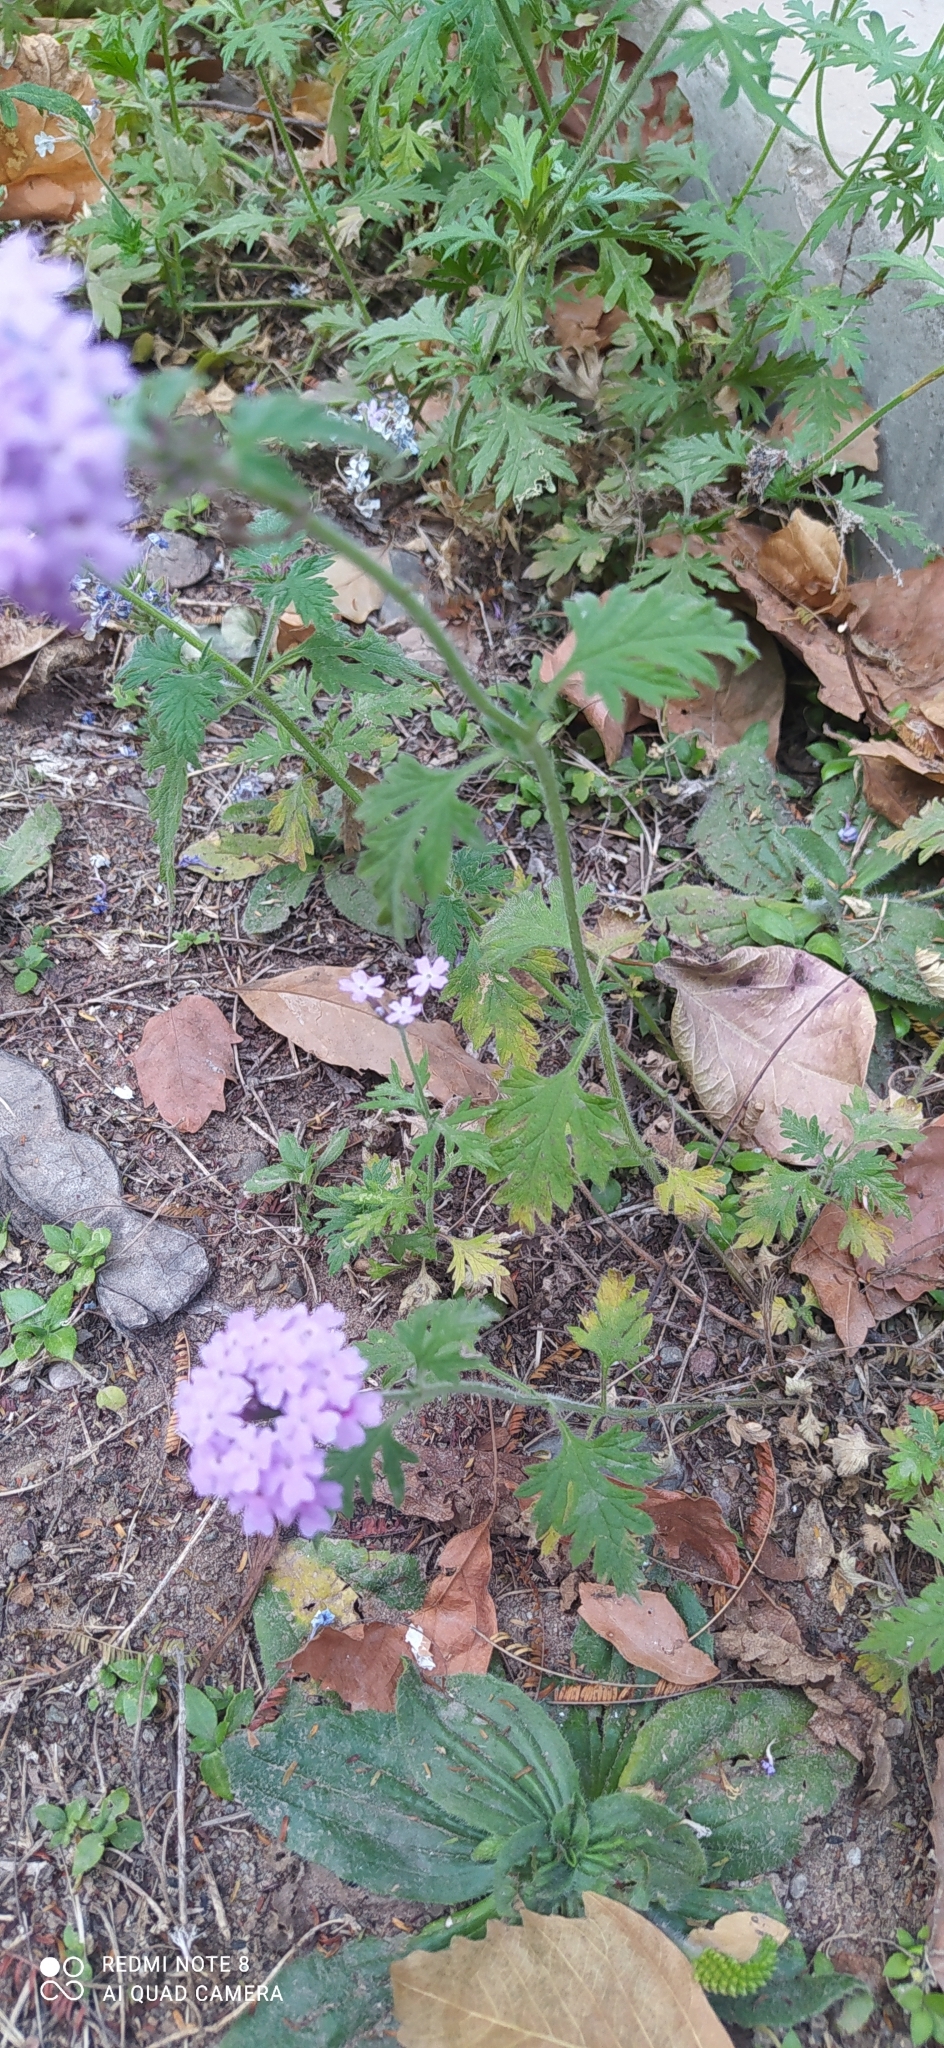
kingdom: Plantae
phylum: Tracheophyta
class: Magnoliopsida
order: Lamiales
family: Verbenaceae
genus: Verbena
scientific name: Verbena venturii
